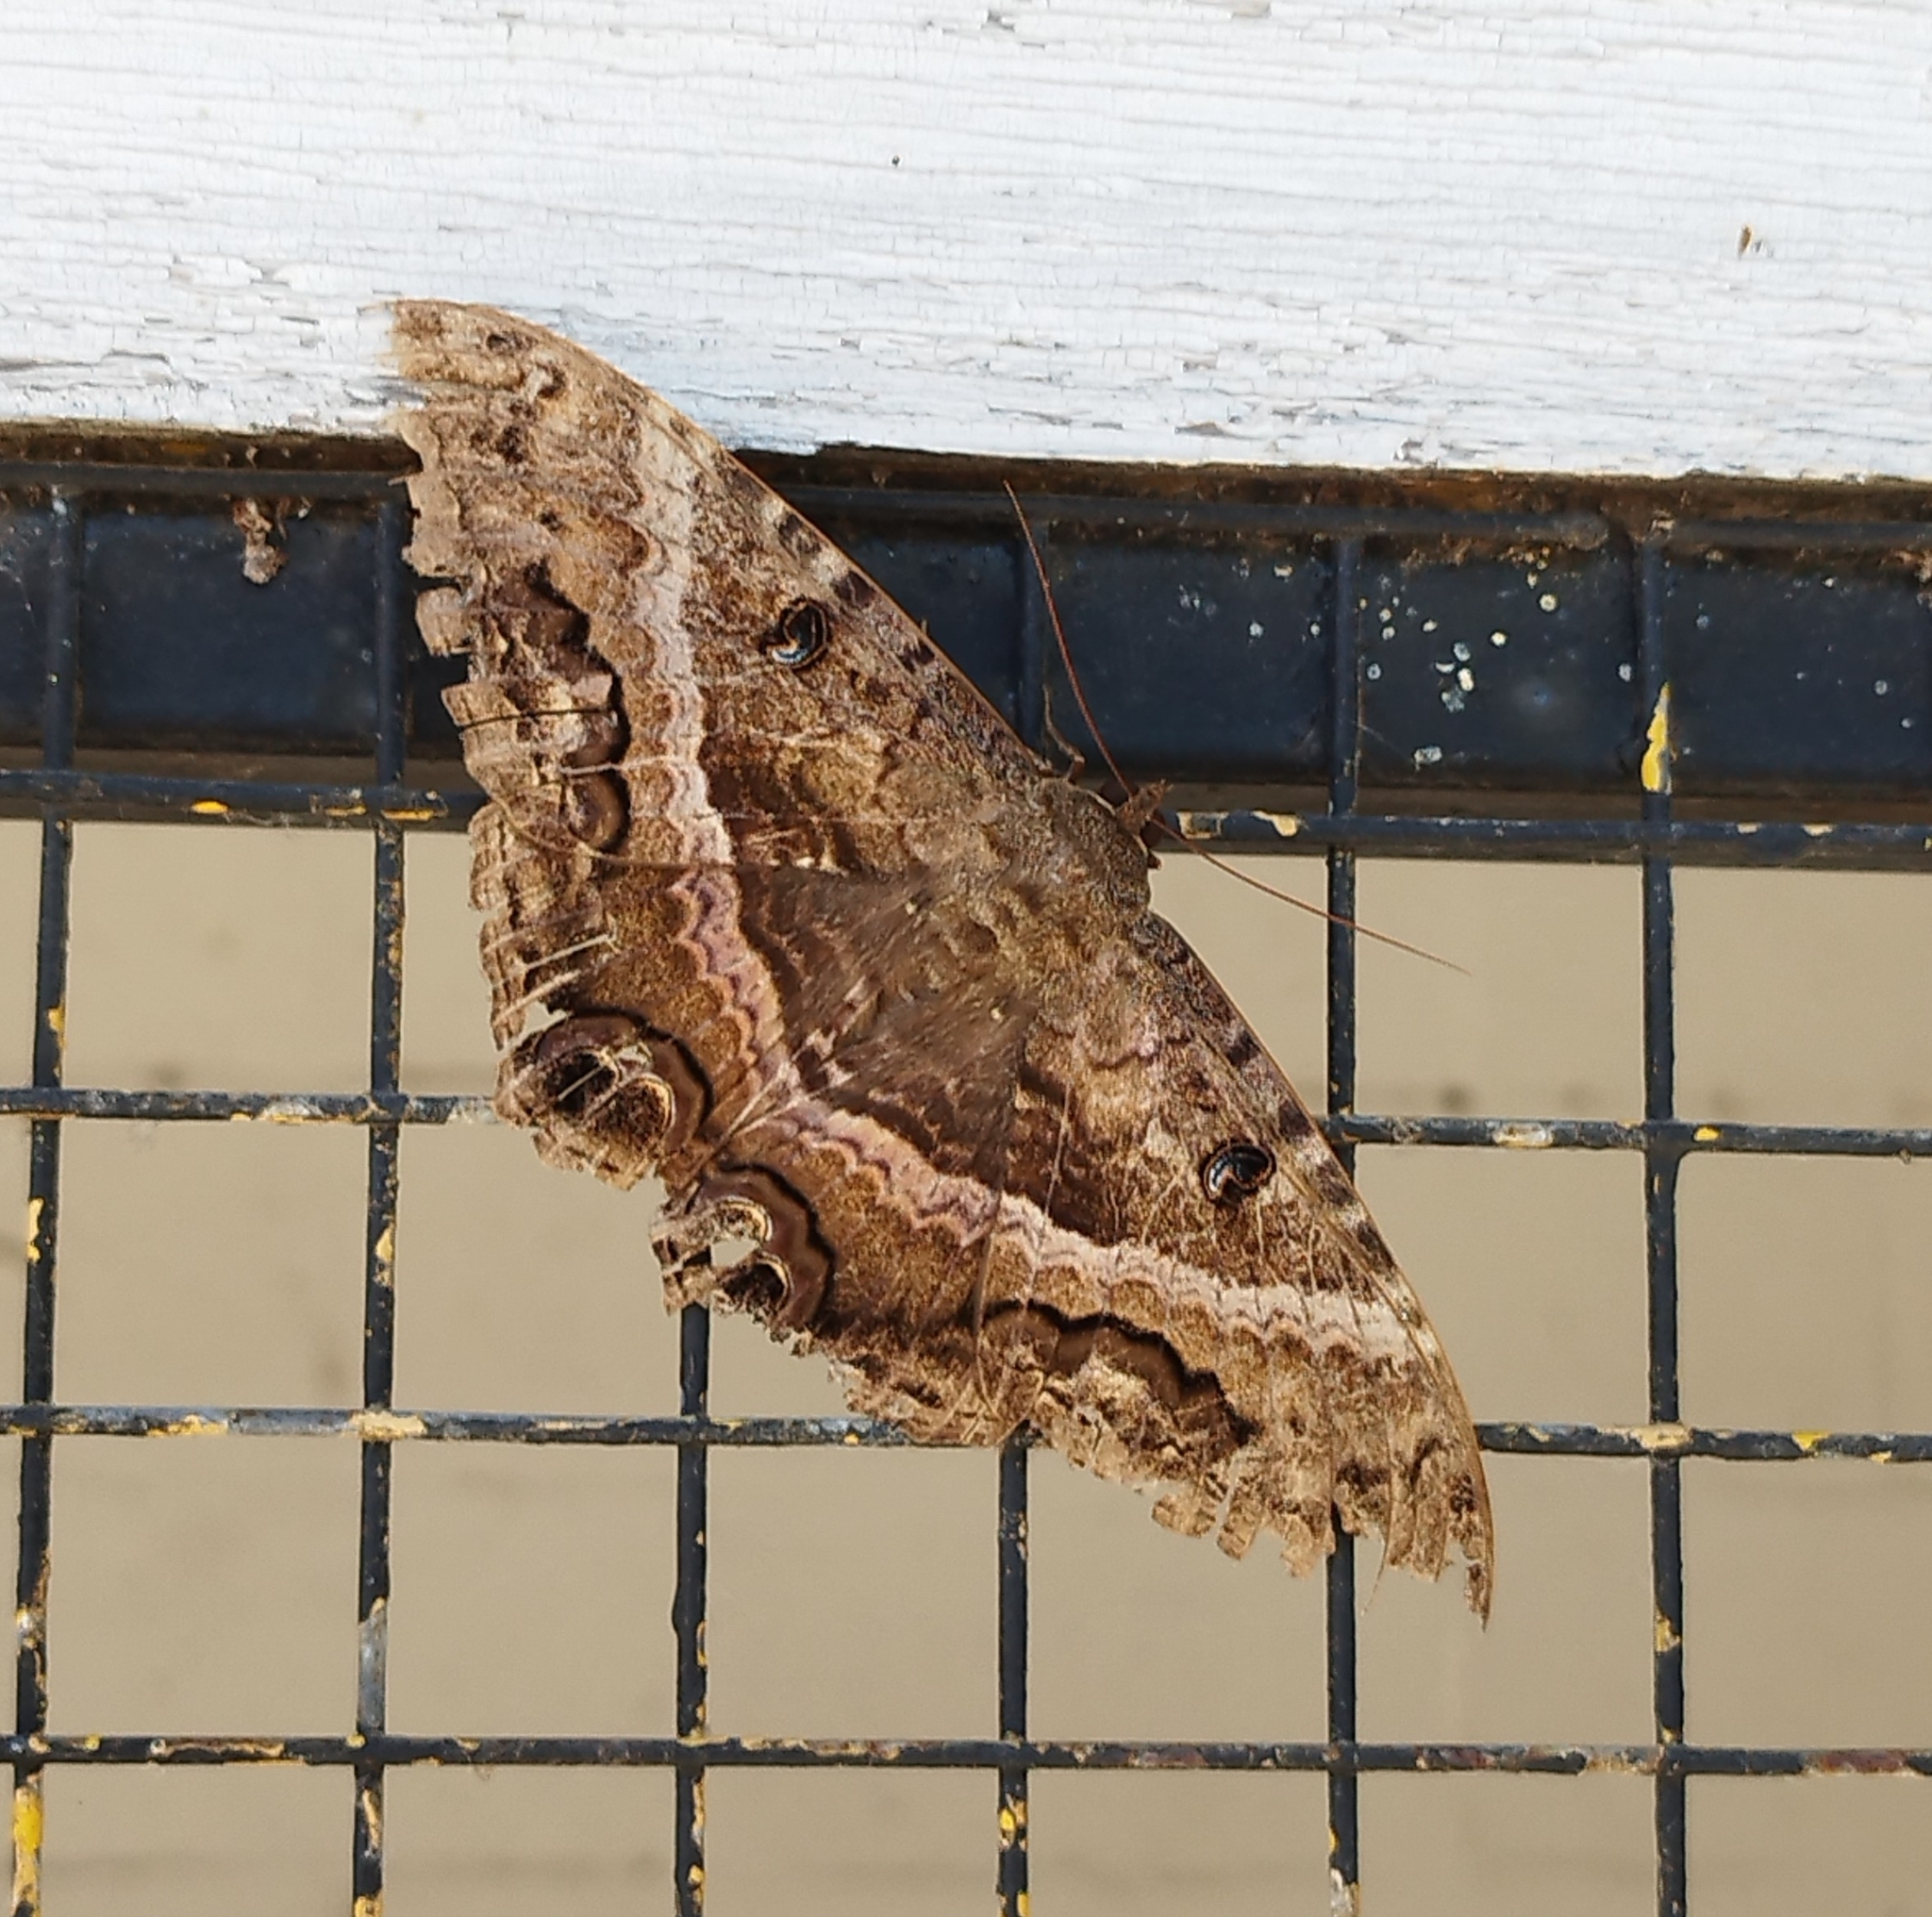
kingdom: Animalia
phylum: Arthropoda
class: Insecta
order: Lepidoptera
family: Erebidae
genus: Ascalapha
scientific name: Ascalapha odorata
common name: Black witch
